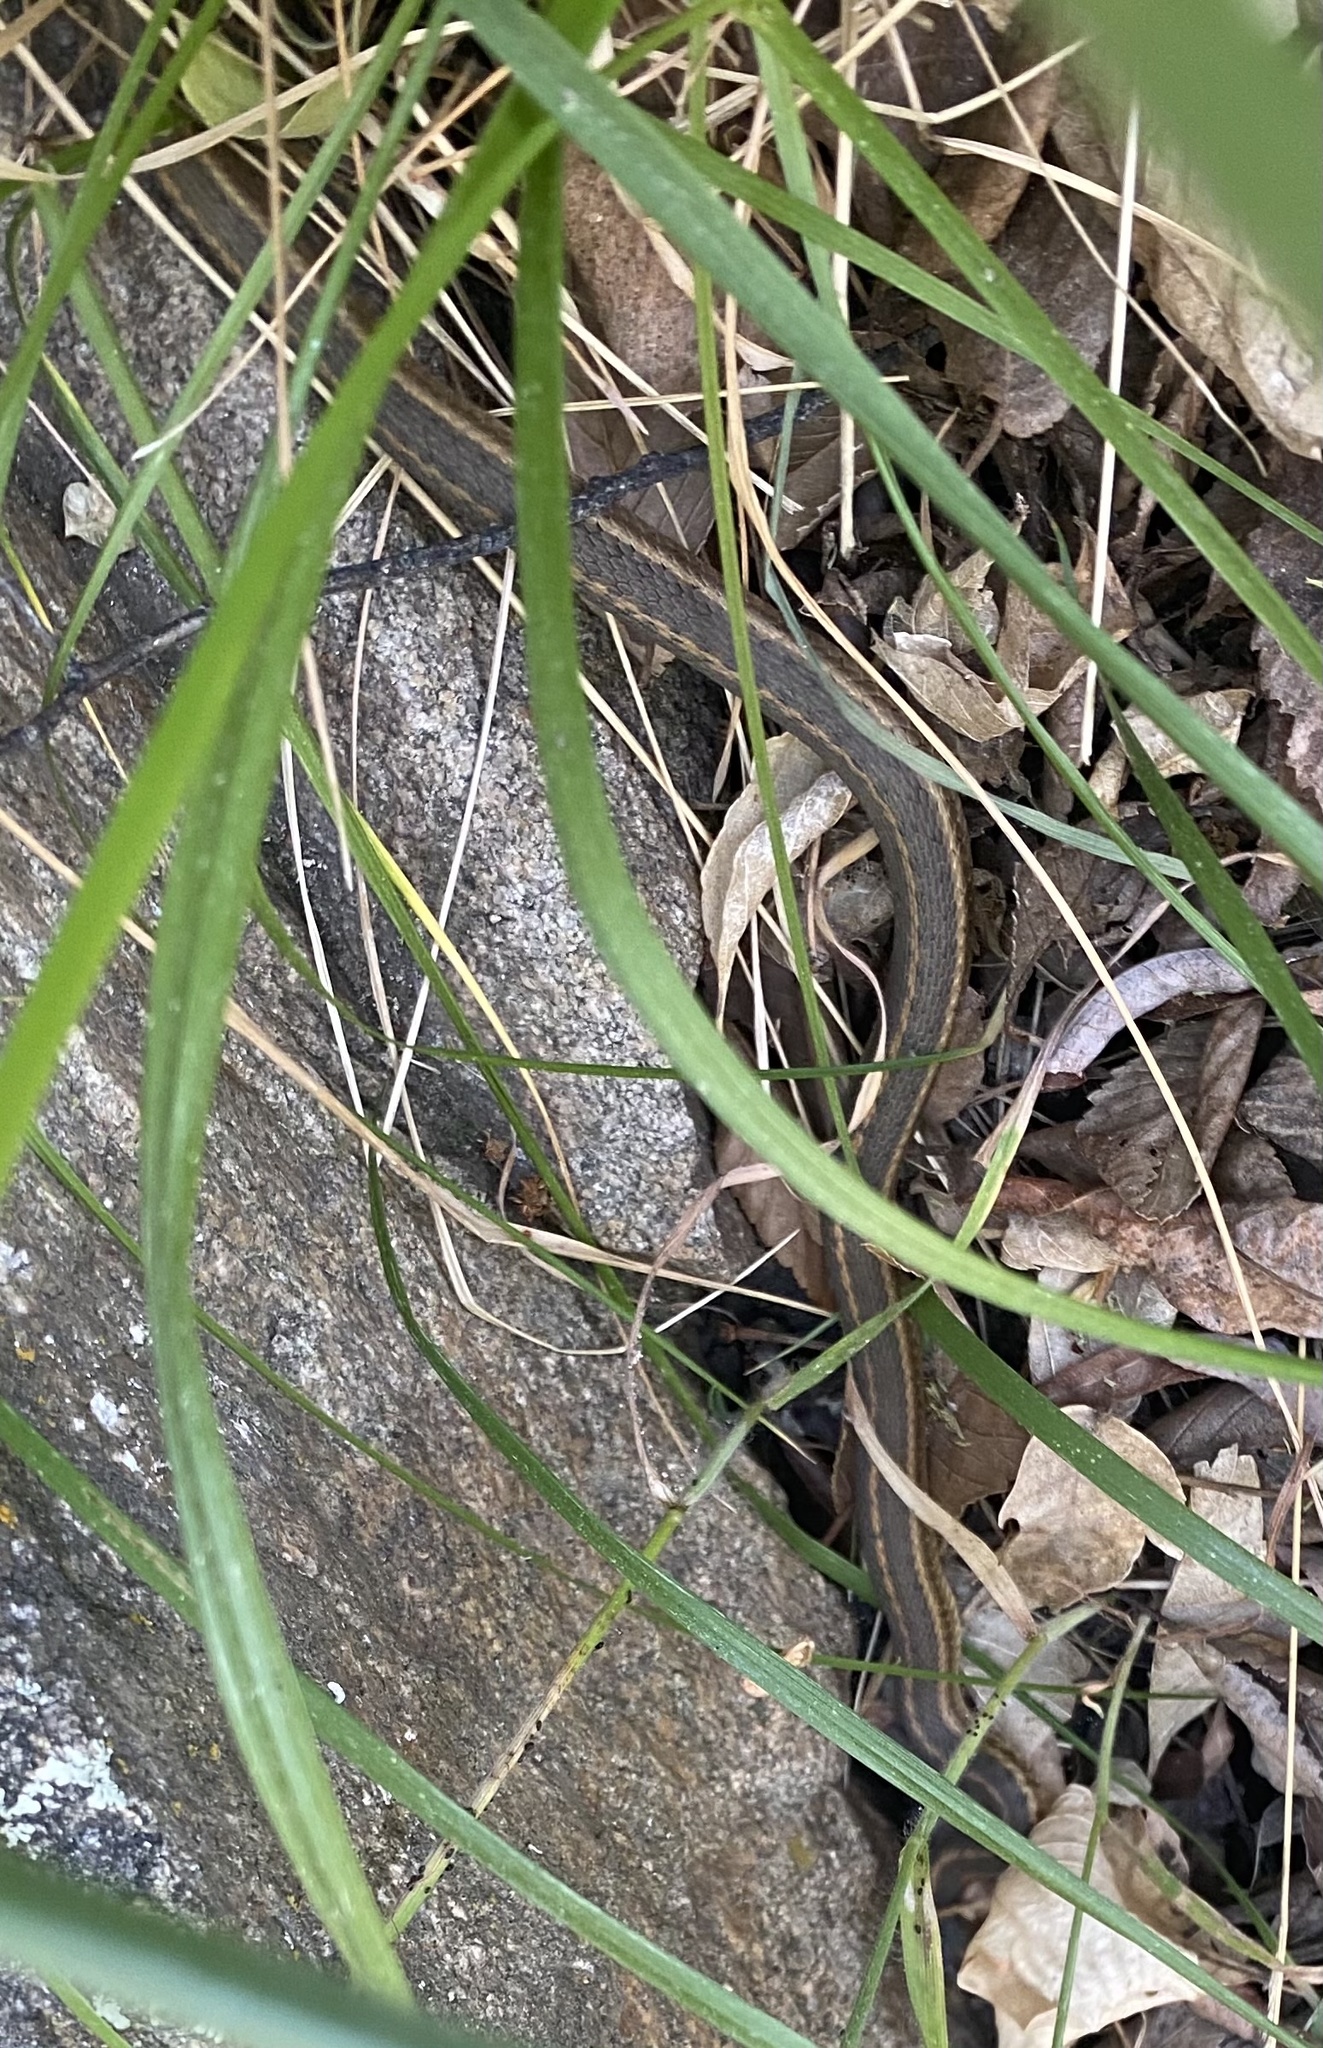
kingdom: Animalia
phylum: Chordata
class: Squamata
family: Colubridae
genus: Thamnophis
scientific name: Thamnophis elegans
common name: Western terrestrial garter snake
